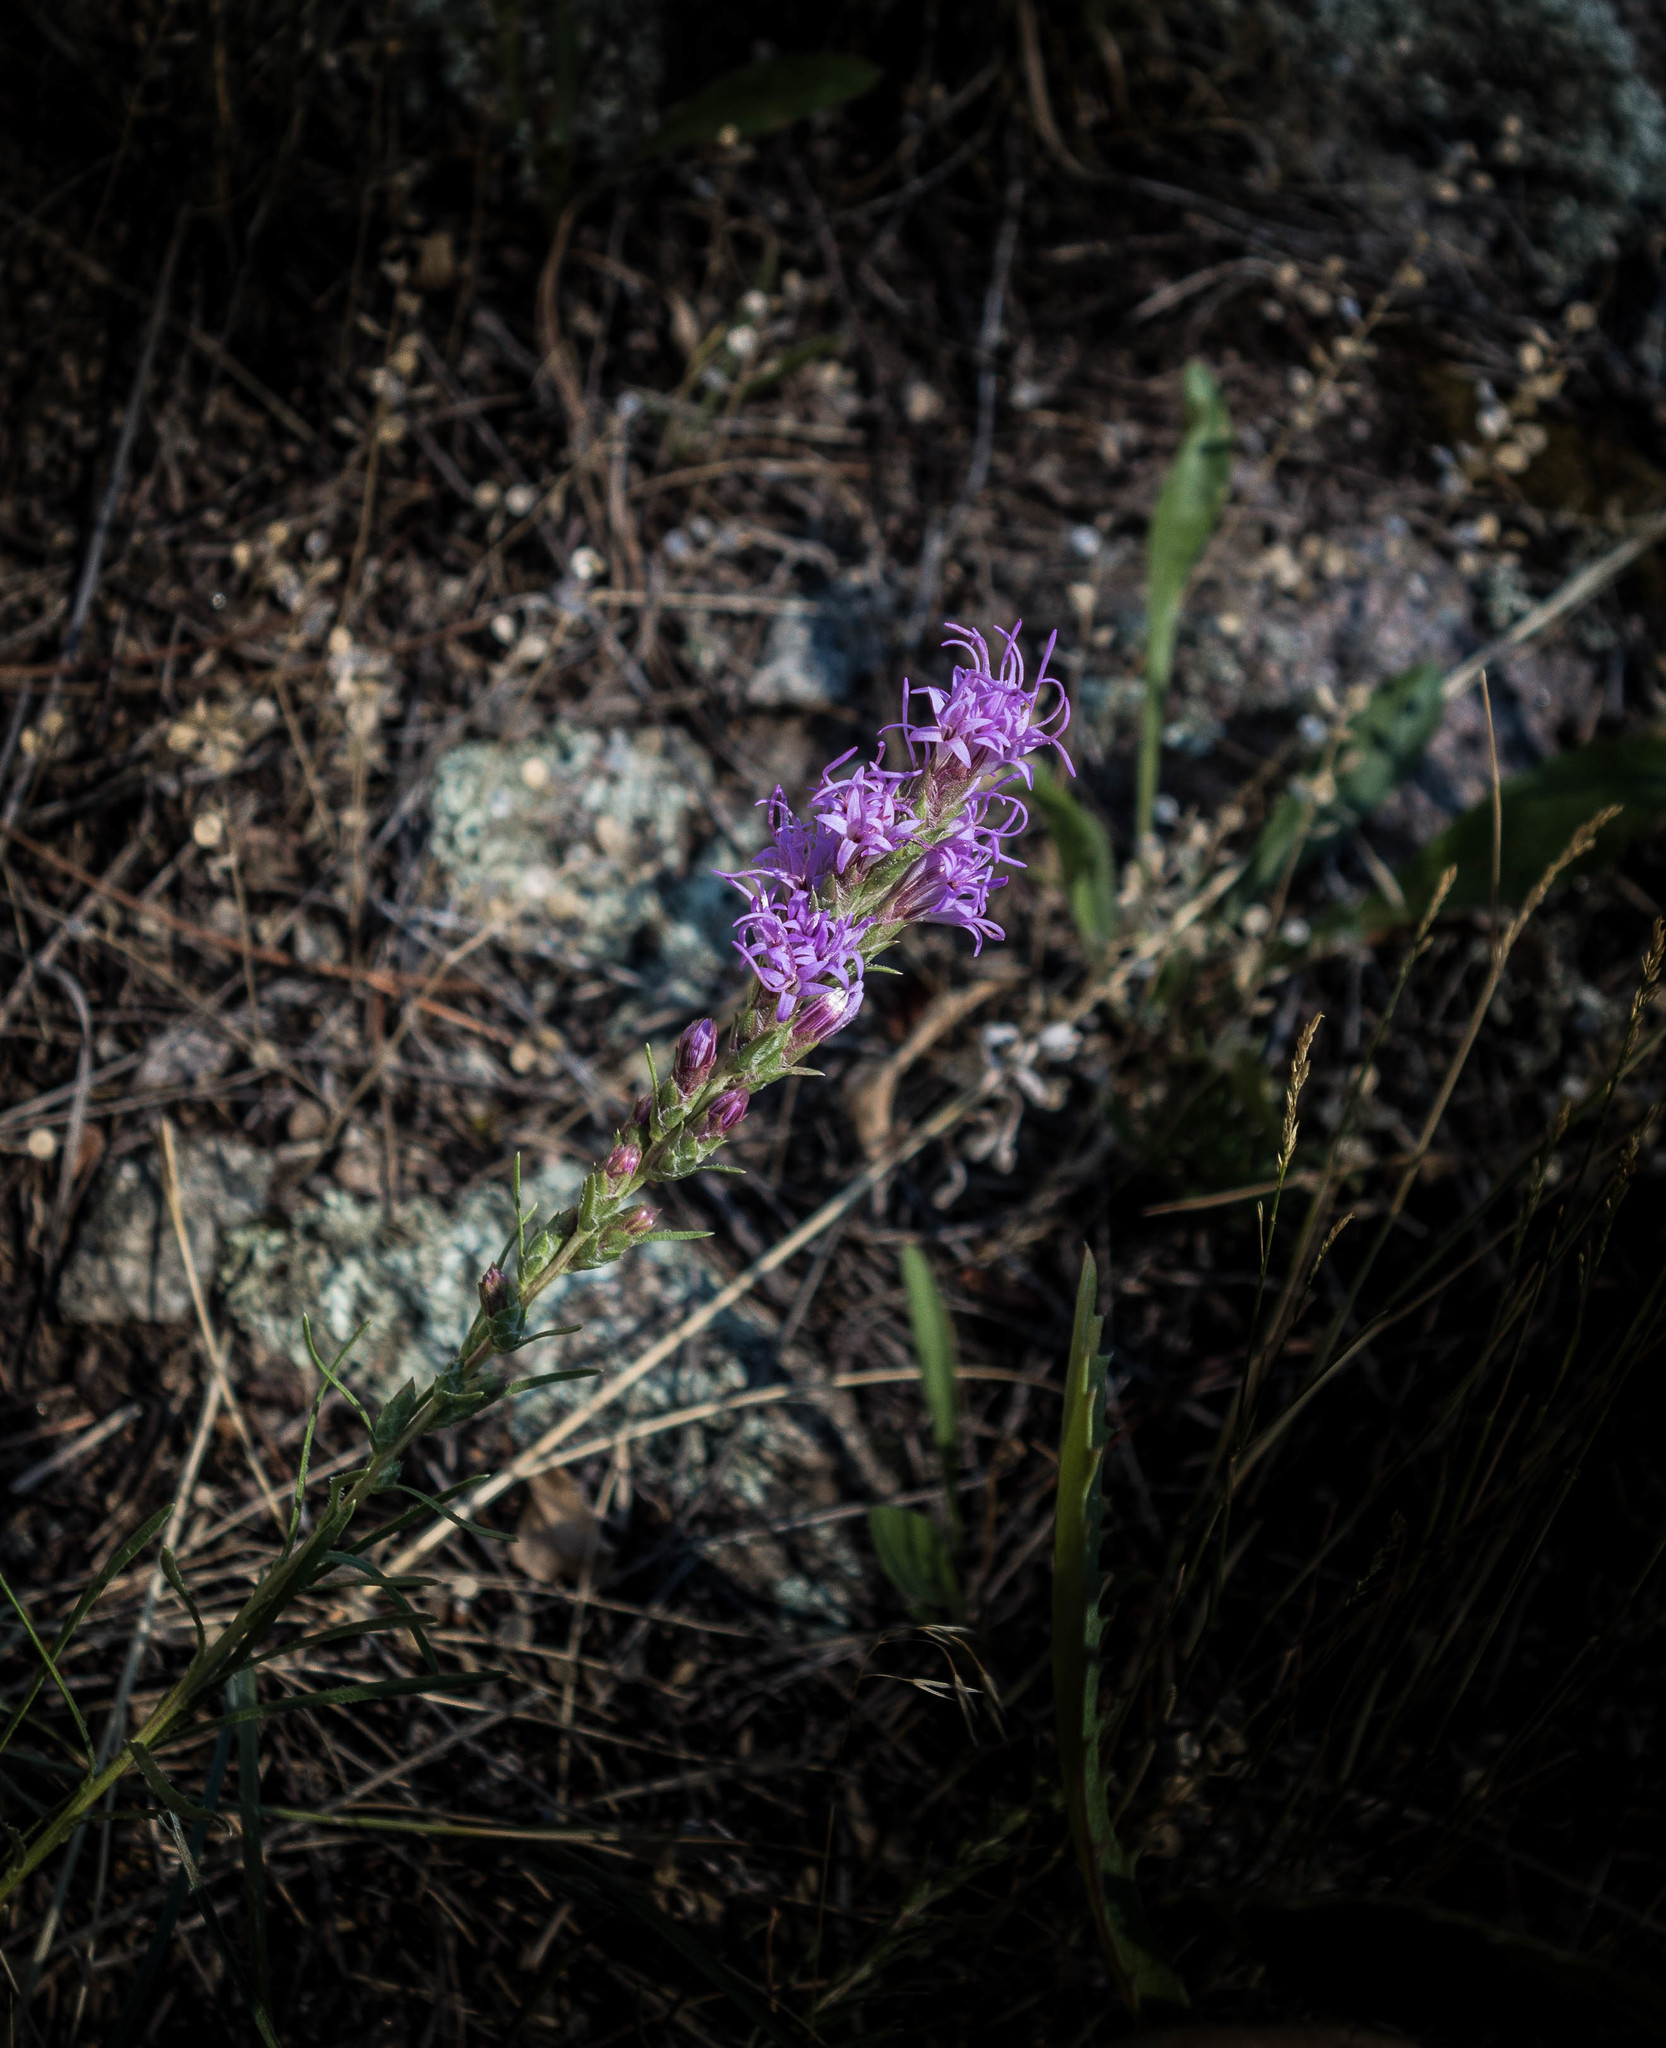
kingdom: Plantae
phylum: Tracheophyta
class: Magnoliopsida
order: Asterales
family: Asteraceae
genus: Liatris
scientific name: Liatris punctata
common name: Dotted gayfeather
